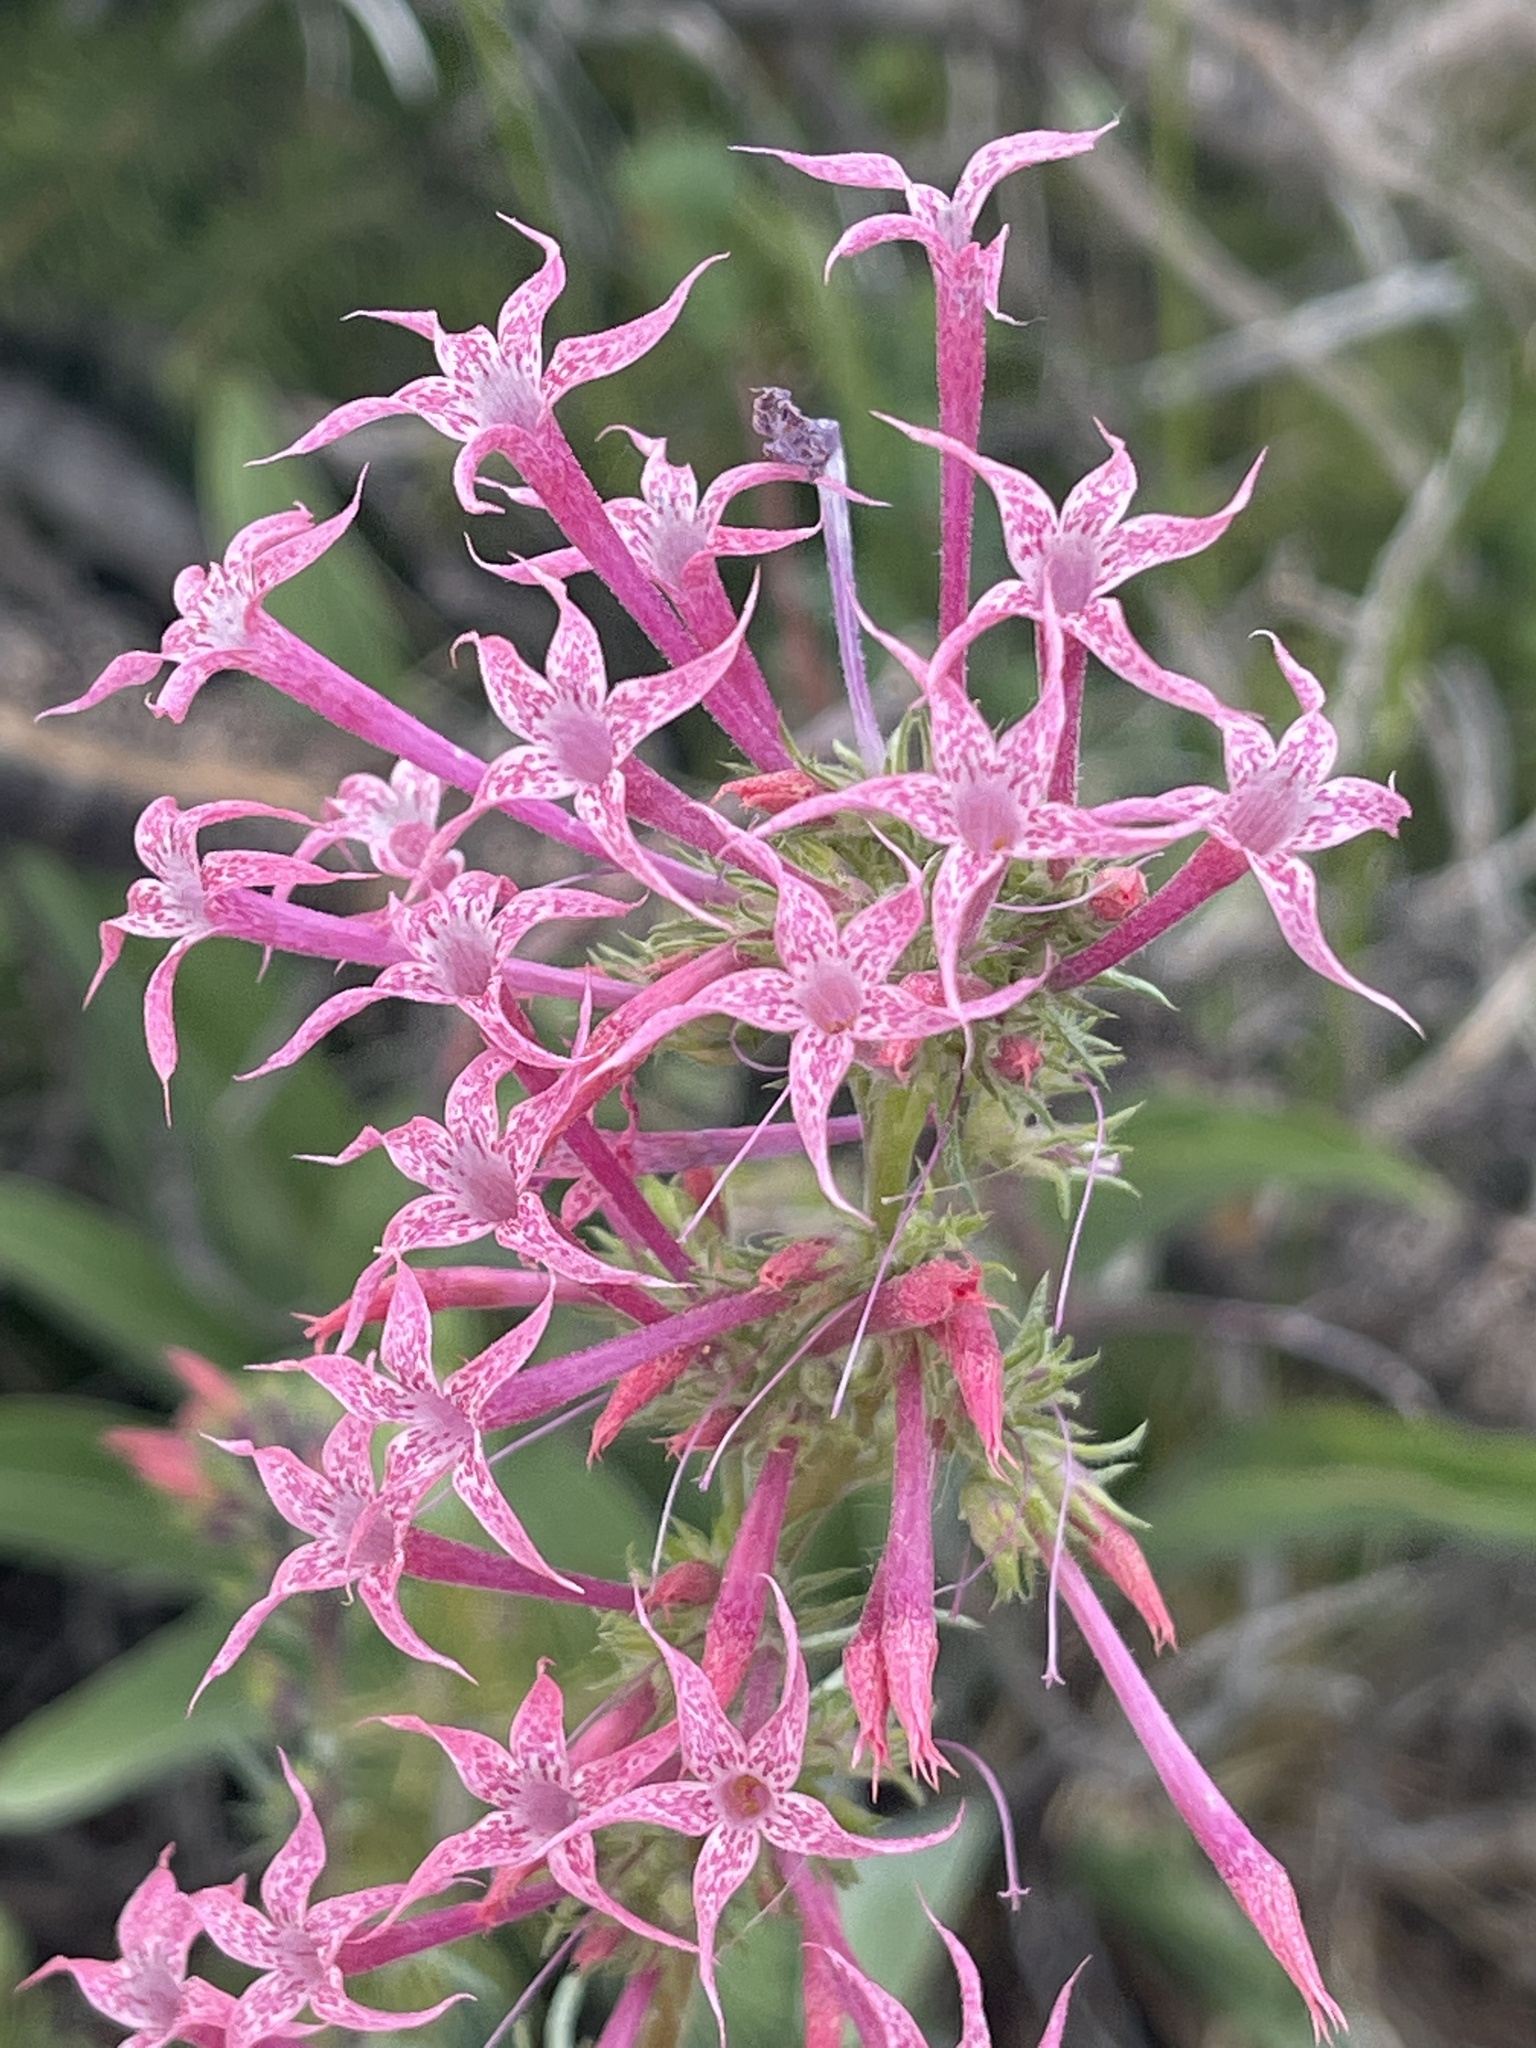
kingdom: Plantae
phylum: Tracheophyta
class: Magnoliopsida
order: Ericales
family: Polemoniaceae
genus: Ipomopsis
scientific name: Ipomopsis tenuituba
